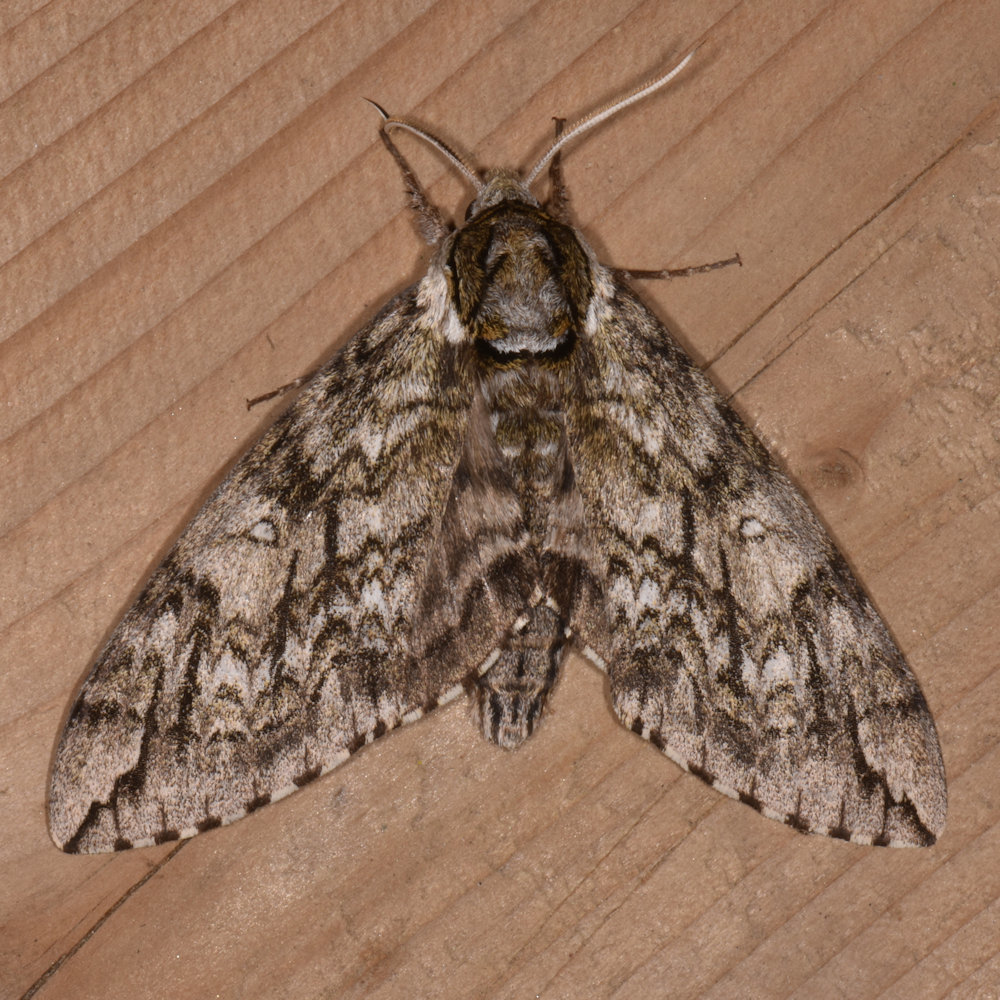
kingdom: Animalia
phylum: Arthropoda
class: Insecta
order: Lepidoptera
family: Sphingidae
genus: Ceratomia
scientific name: Ceratomia undulosa
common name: Waved sphinx
